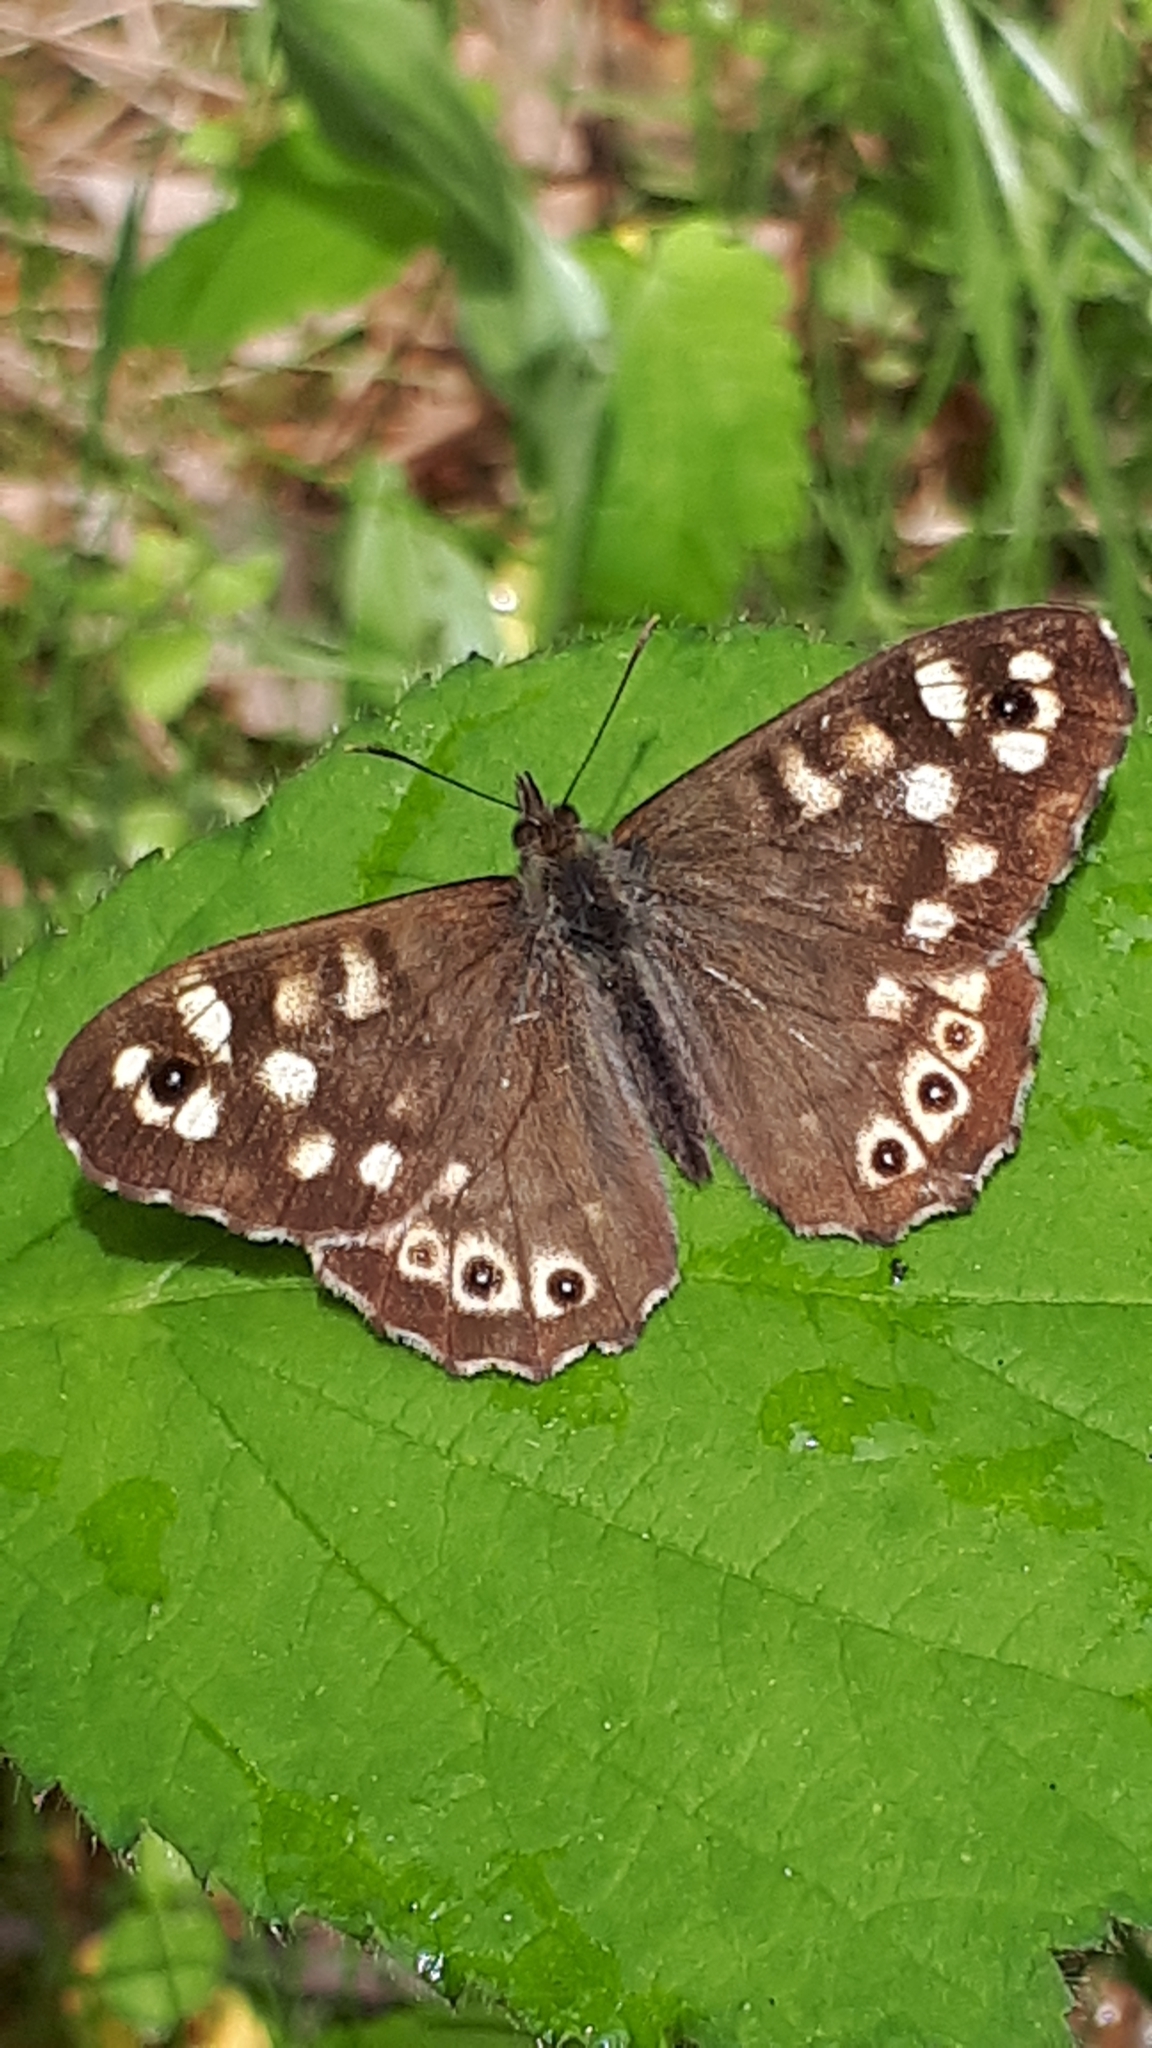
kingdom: Animalia
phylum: Arthropoda
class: Insecta
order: Lepidoptera
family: Nymphalidae
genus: Pararge
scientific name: Pararge aegeria
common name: Speckled wood
